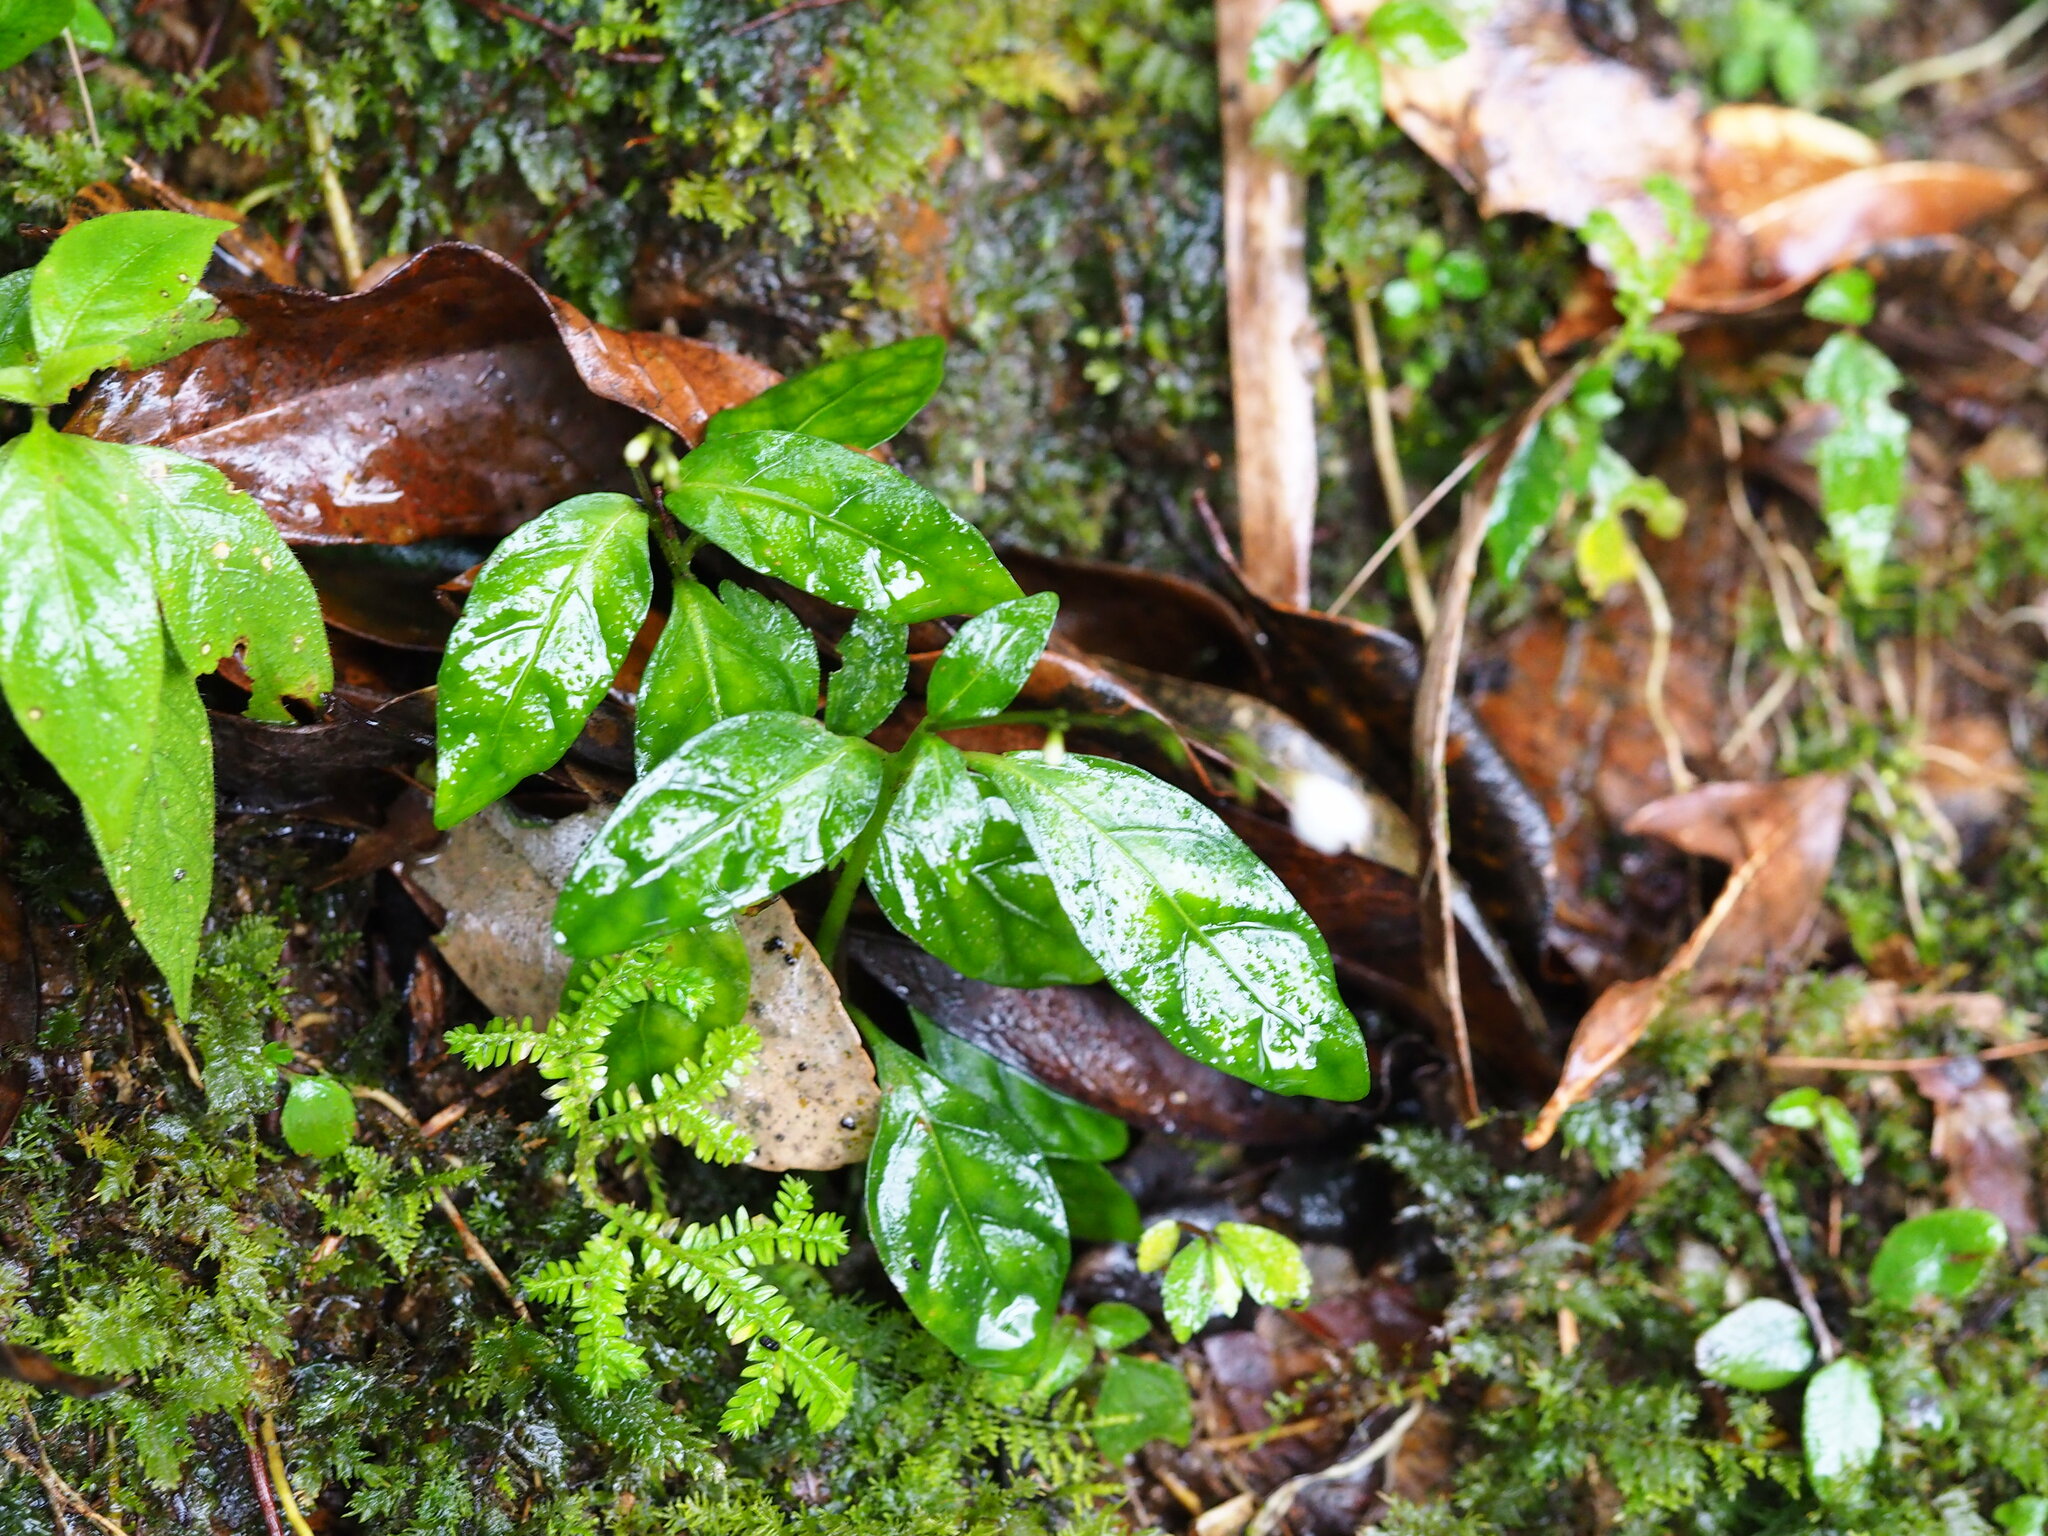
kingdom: Plantae
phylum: Tracheophyta
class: Magnoliopsida
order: Lamiales
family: Acanthaceae
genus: Codonacanthus
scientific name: Codonacanthus pauciflorus
